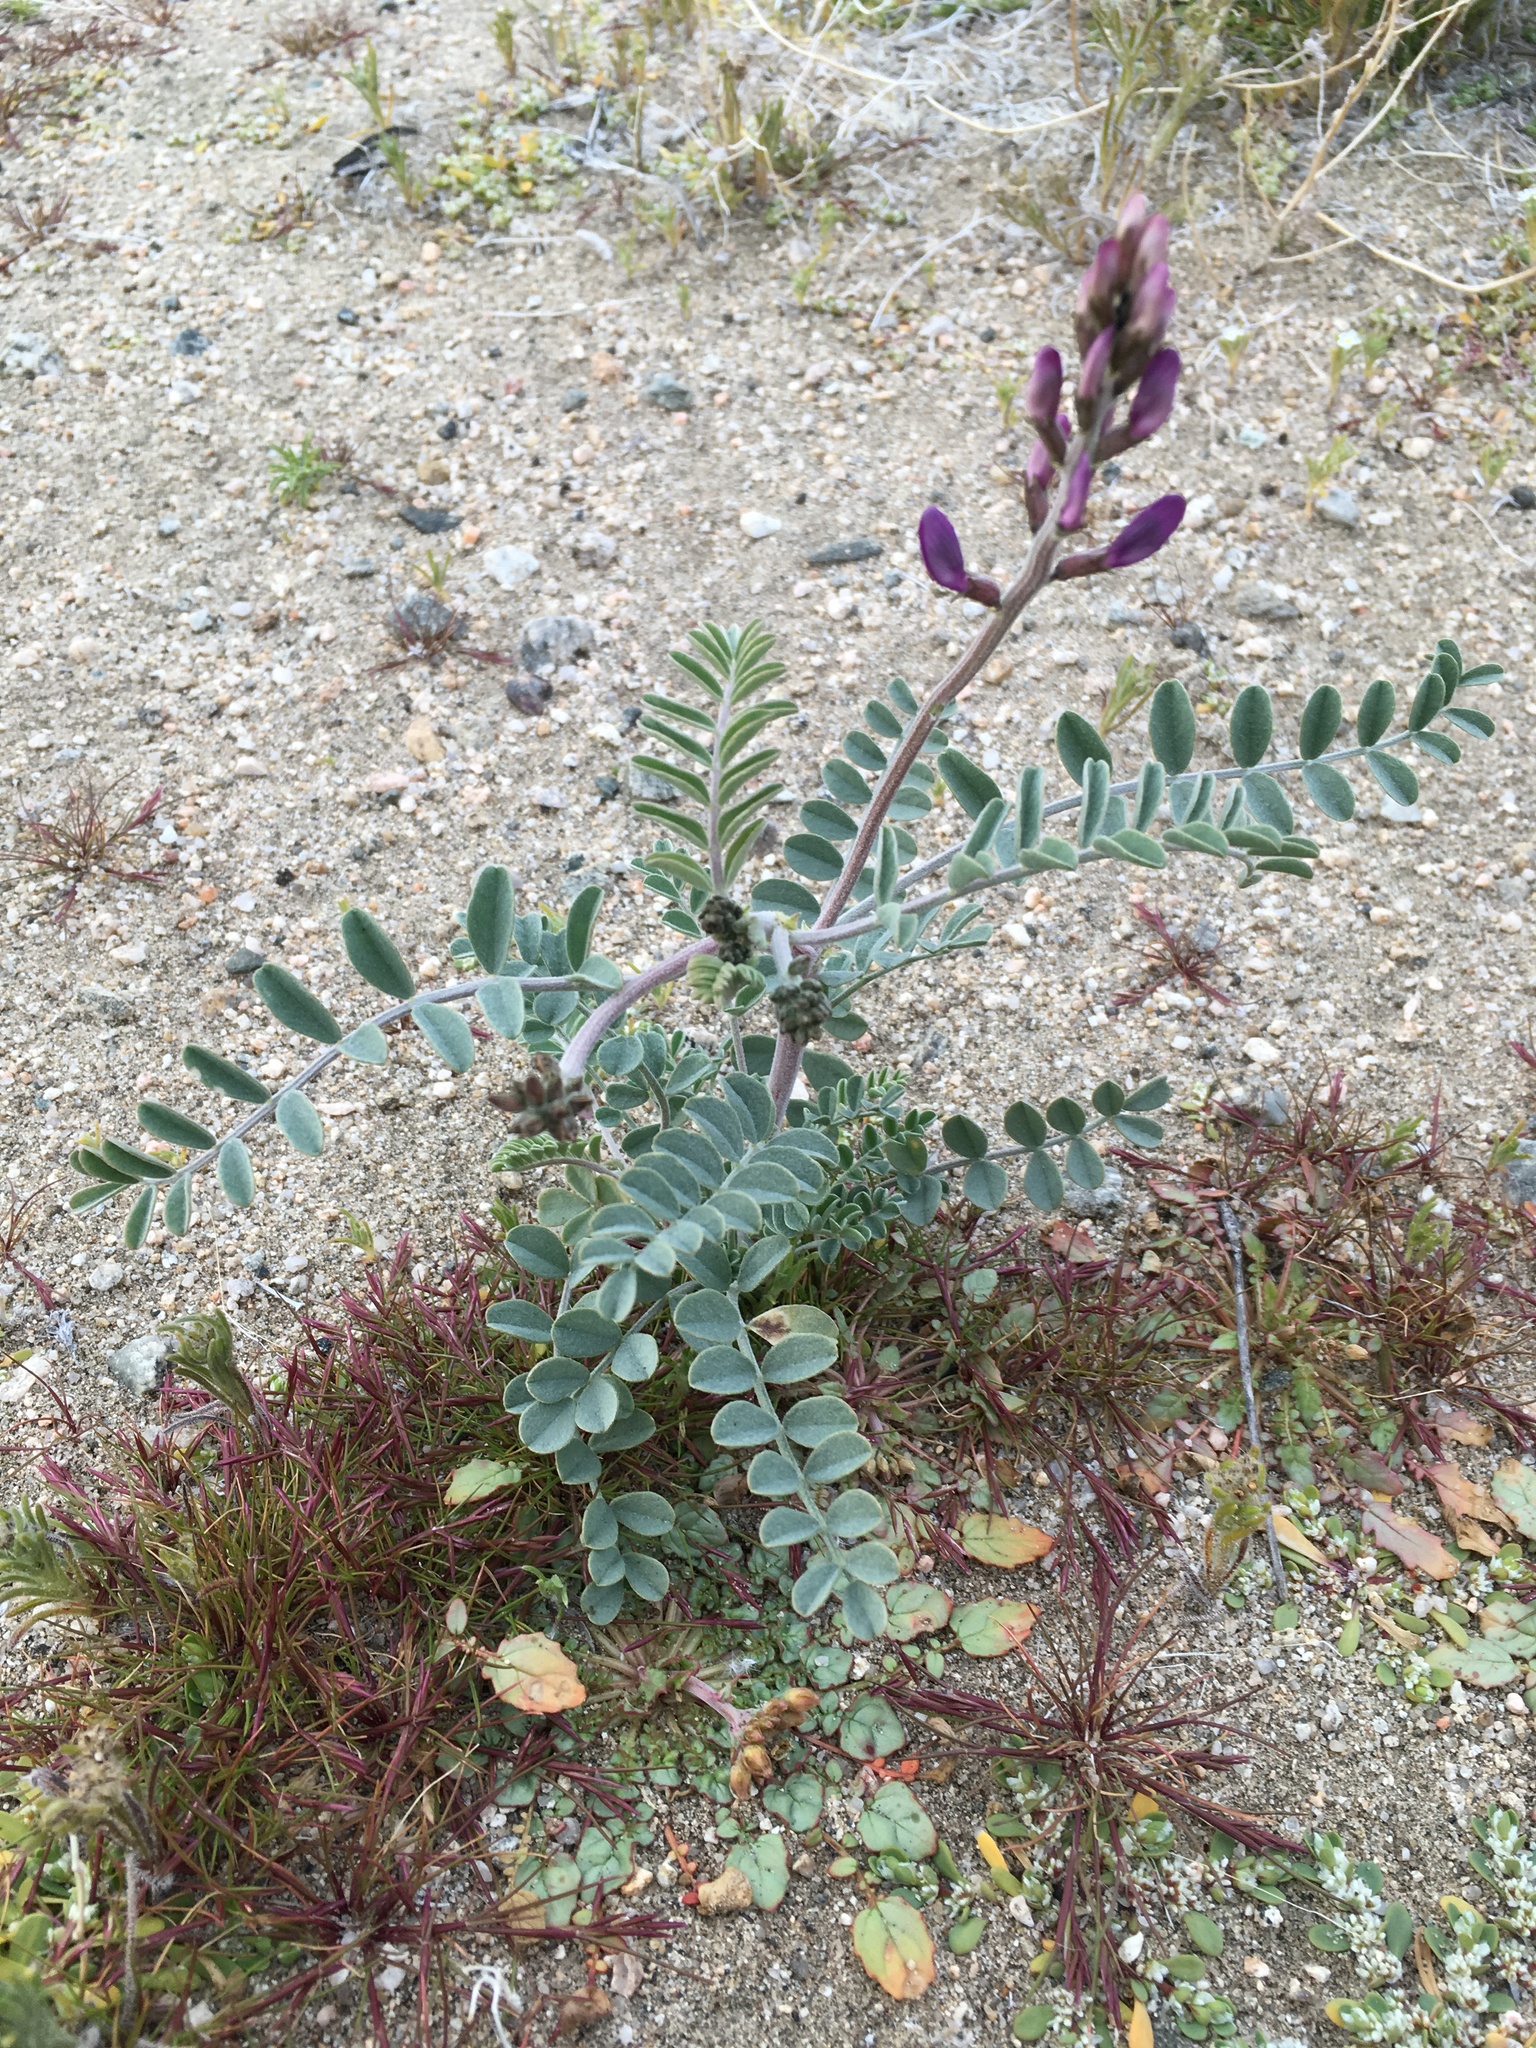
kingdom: Plantae
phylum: Tracheophyta
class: Magnoliopsida
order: Fabales
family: Fabaceae
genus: Astragalus
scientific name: Astragalus lentiginosus
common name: Freckled milkvetch
